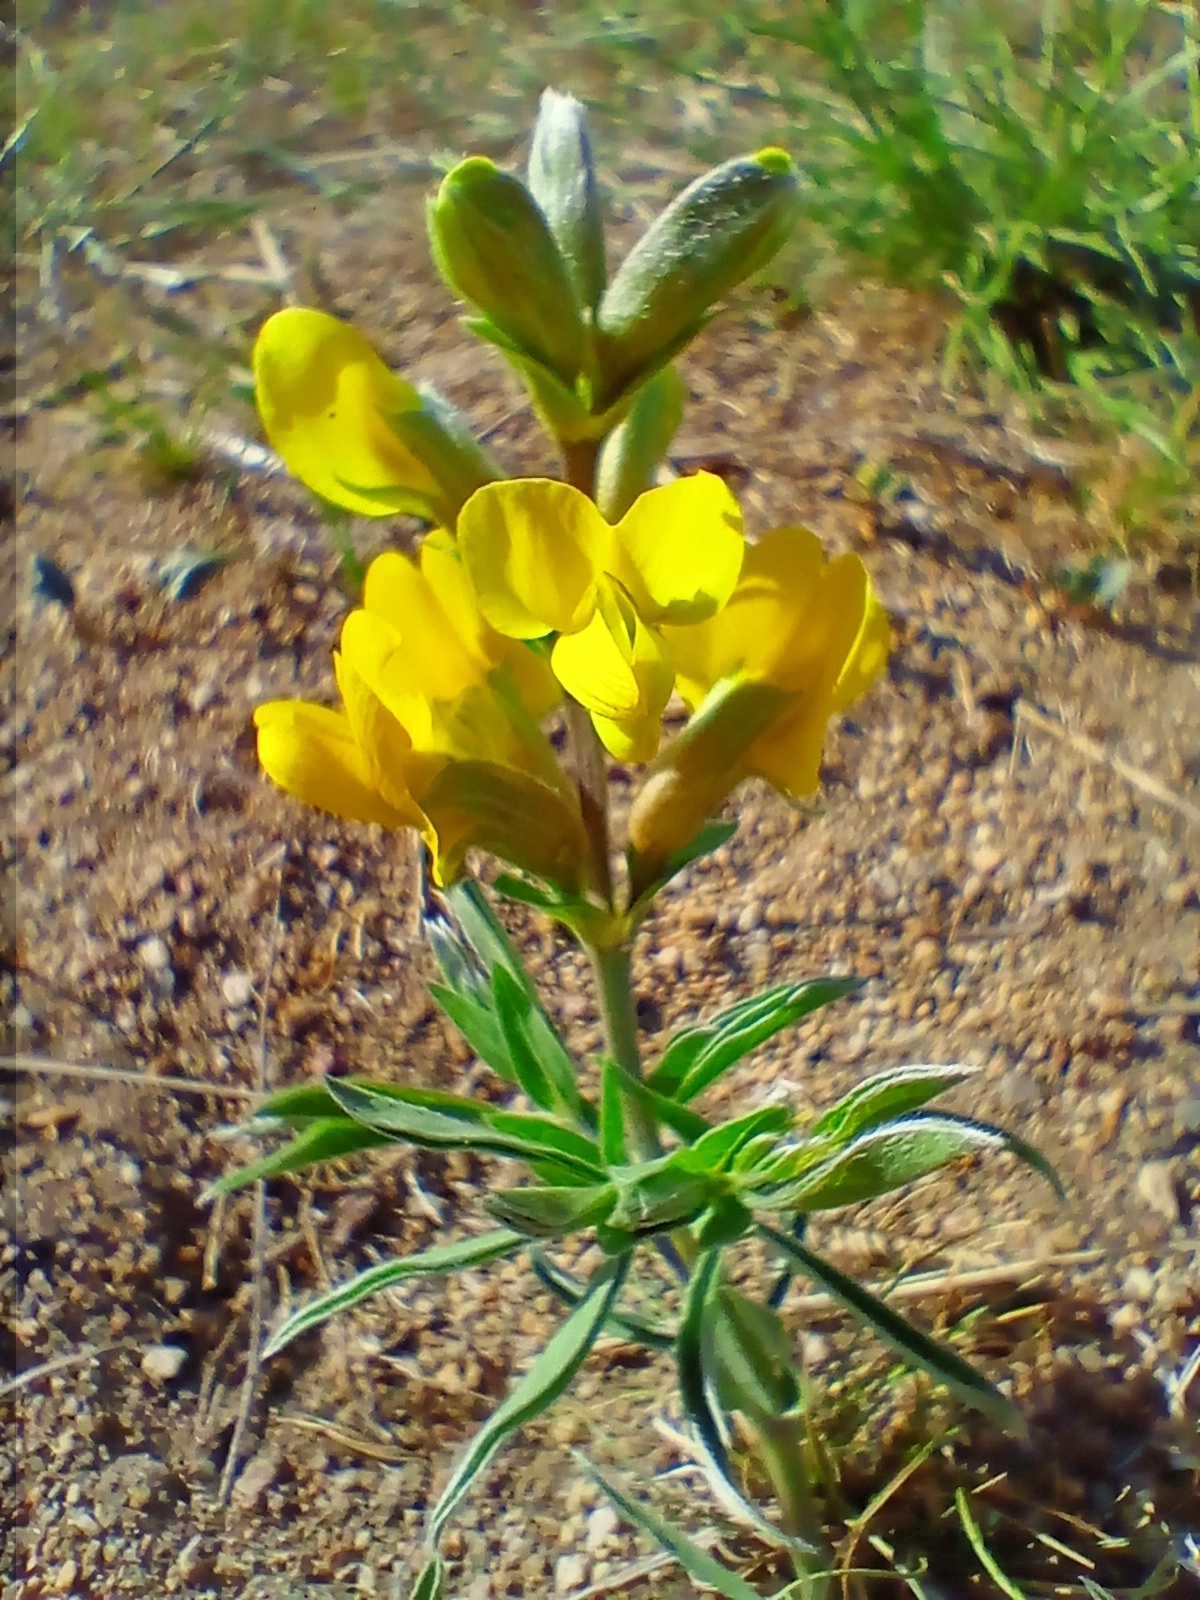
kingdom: Plantae
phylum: Tracheophyta
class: Magnoliopsida
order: Fabales
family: Fabaceae
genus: Thermopsis
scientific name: Thermopsis lanceolata
